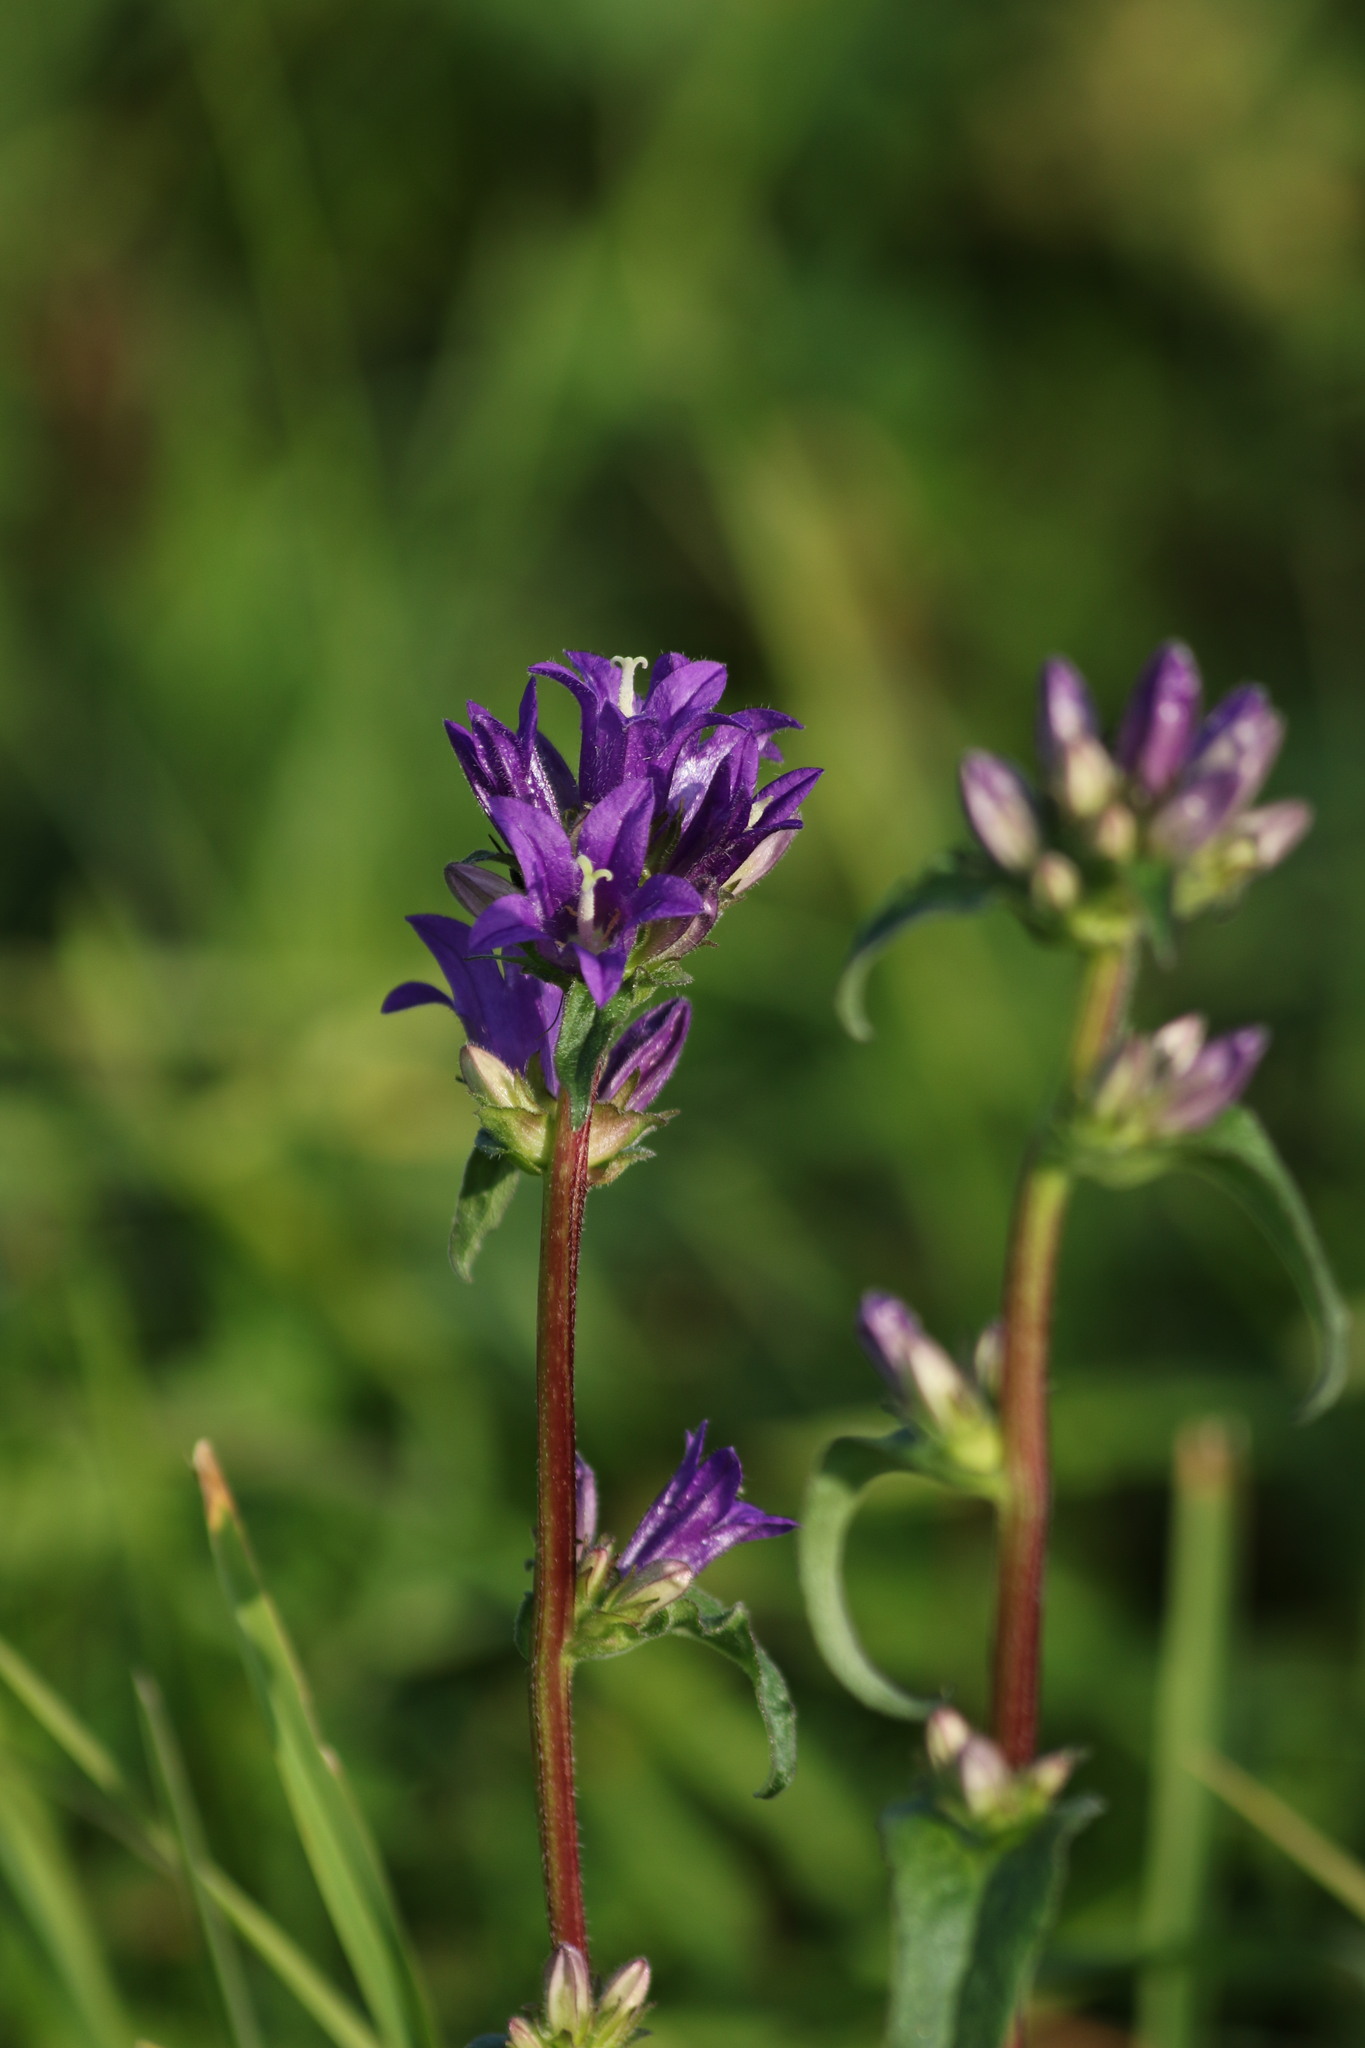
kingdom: Plantae
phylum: Tracheophyta
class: Magnoliopsida
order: Asterales
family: Campanulaceae
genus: Campanula
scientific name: Campanula glomerata
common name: Clustered bellflower
